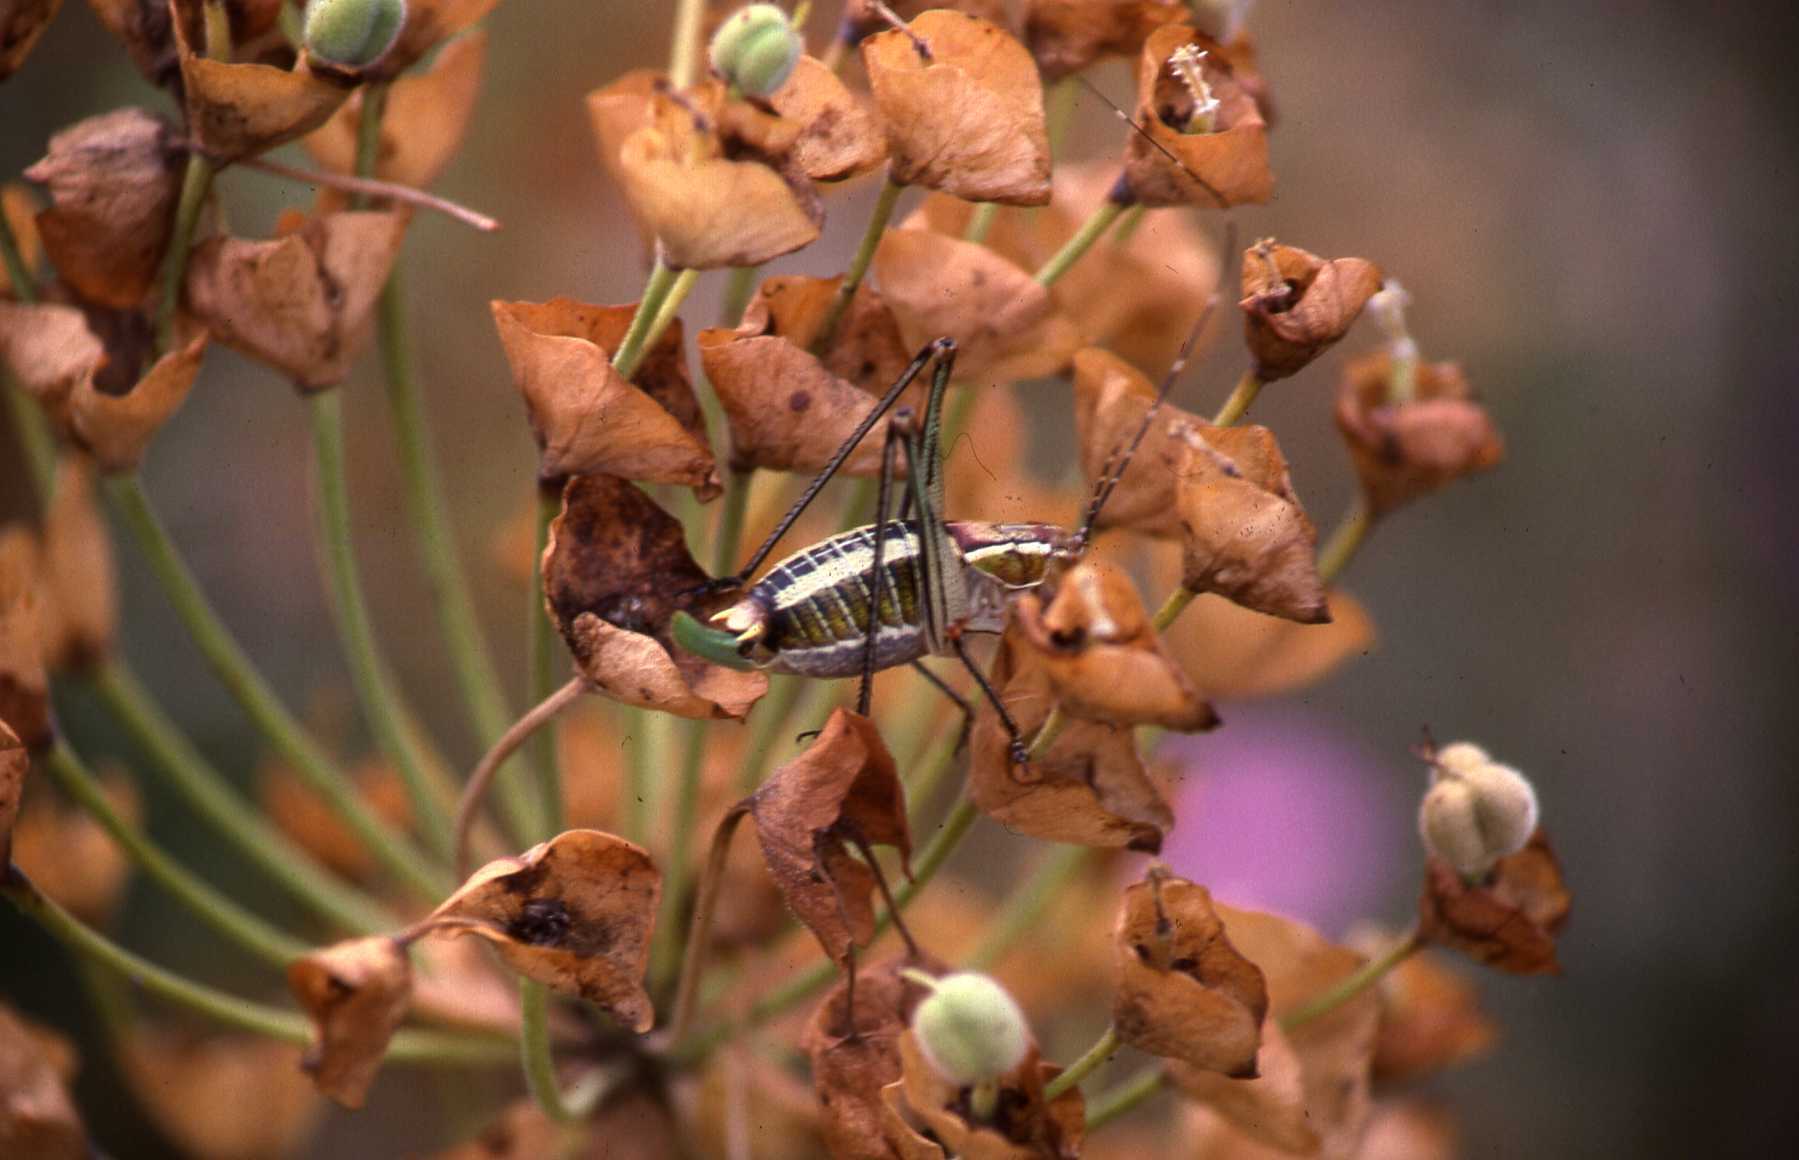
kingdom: Animalia
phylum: Arthropoda
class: Insecta
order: Orthoptera
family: Tettigoniidae
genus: Poecilimon
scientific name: Poecilimon tessellatus
